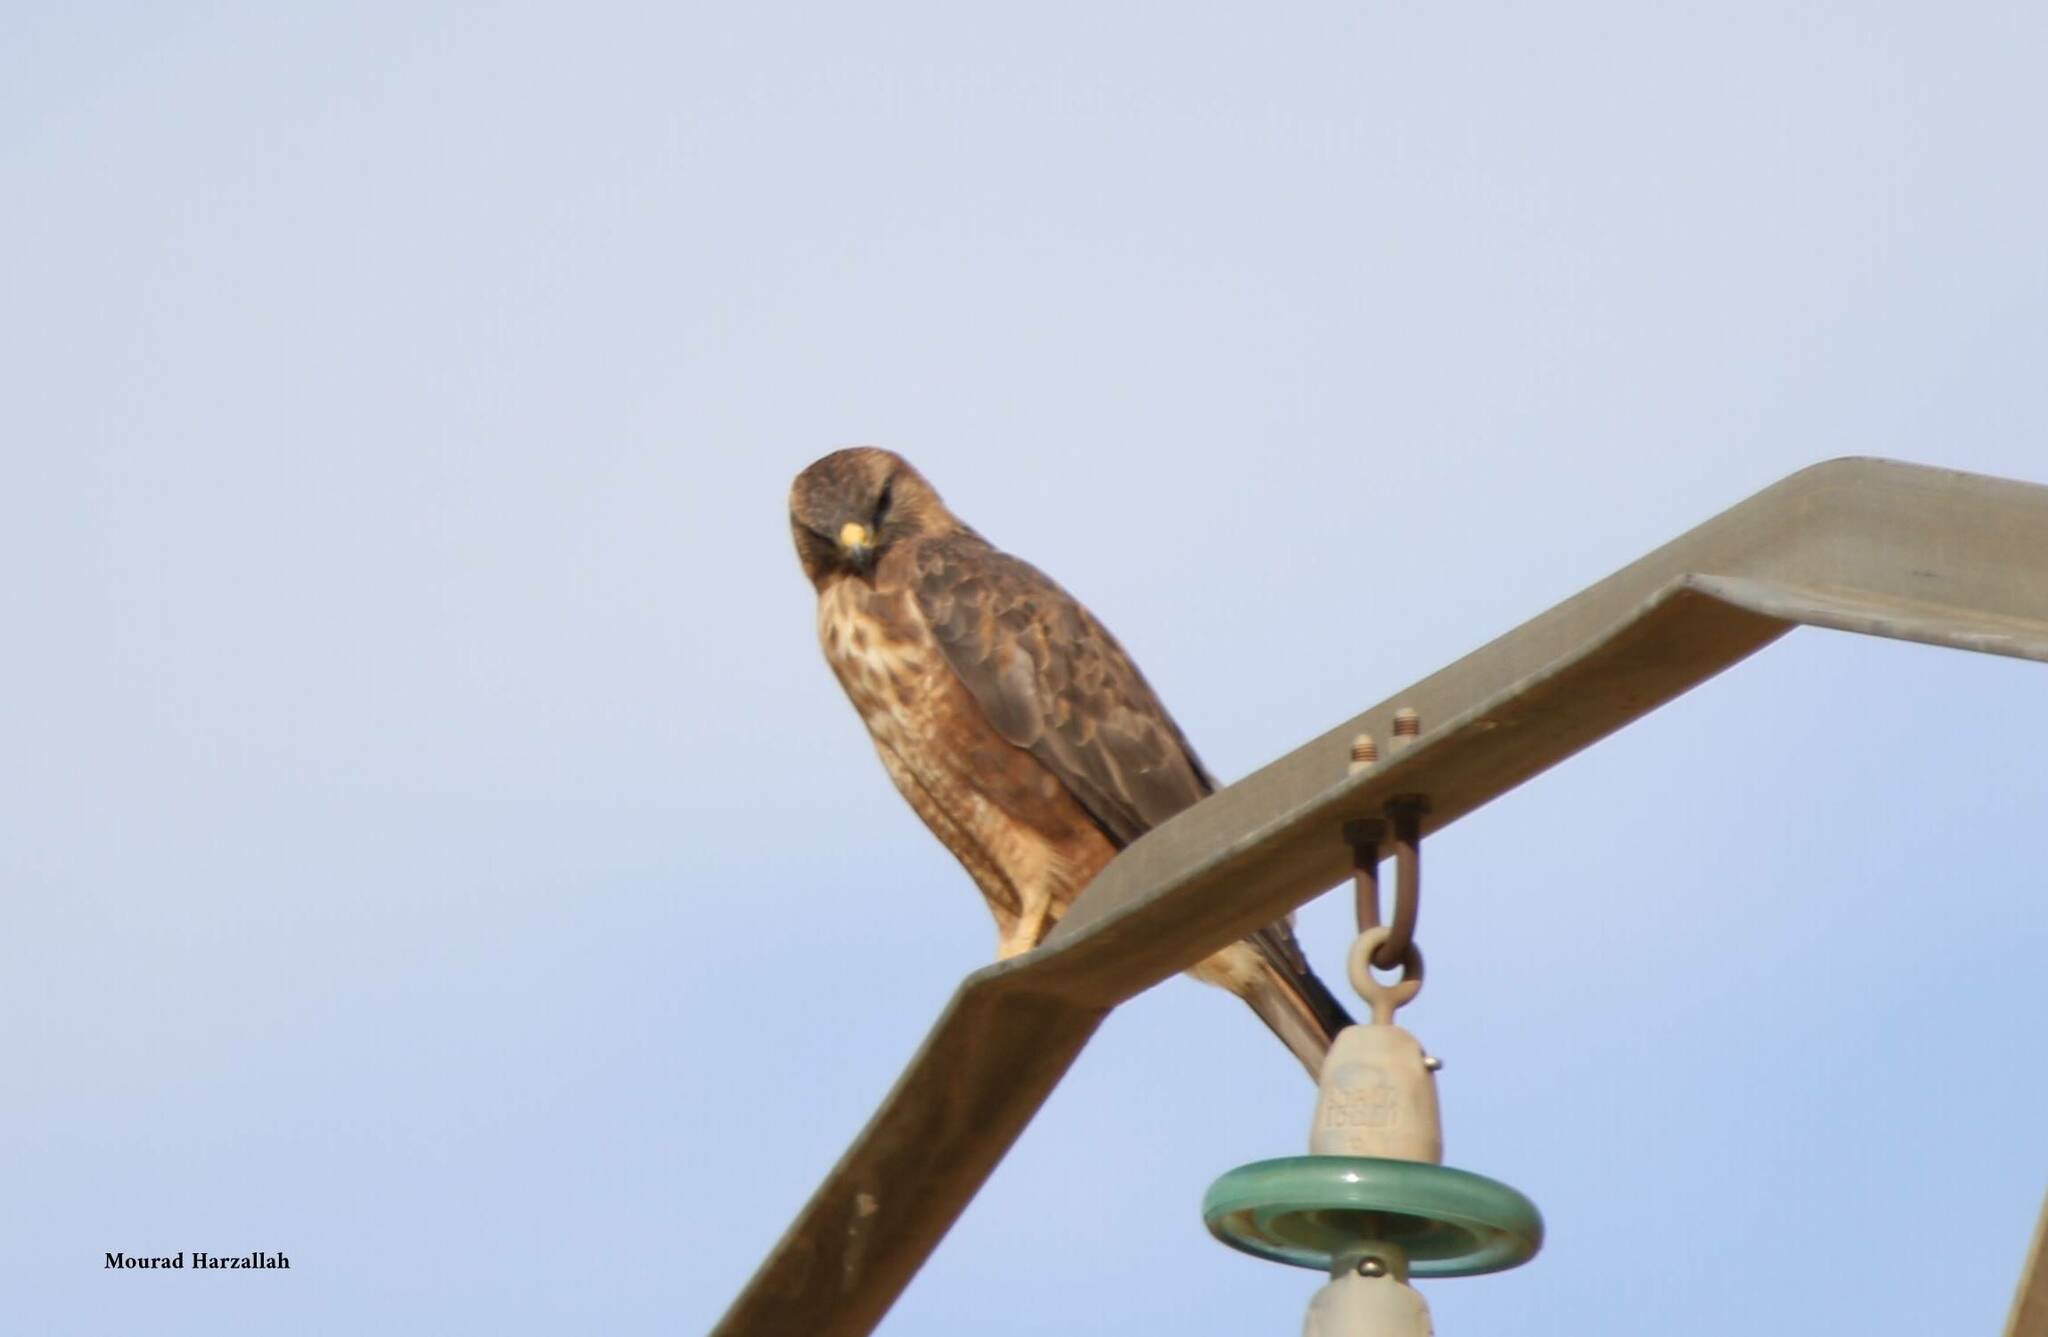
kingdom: Animalia
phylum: Chordata
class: Aves
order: Accipitriformes
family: Accipitridae
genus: Buteo
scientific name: Buteo rufinus
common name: Long-legged buzzard
